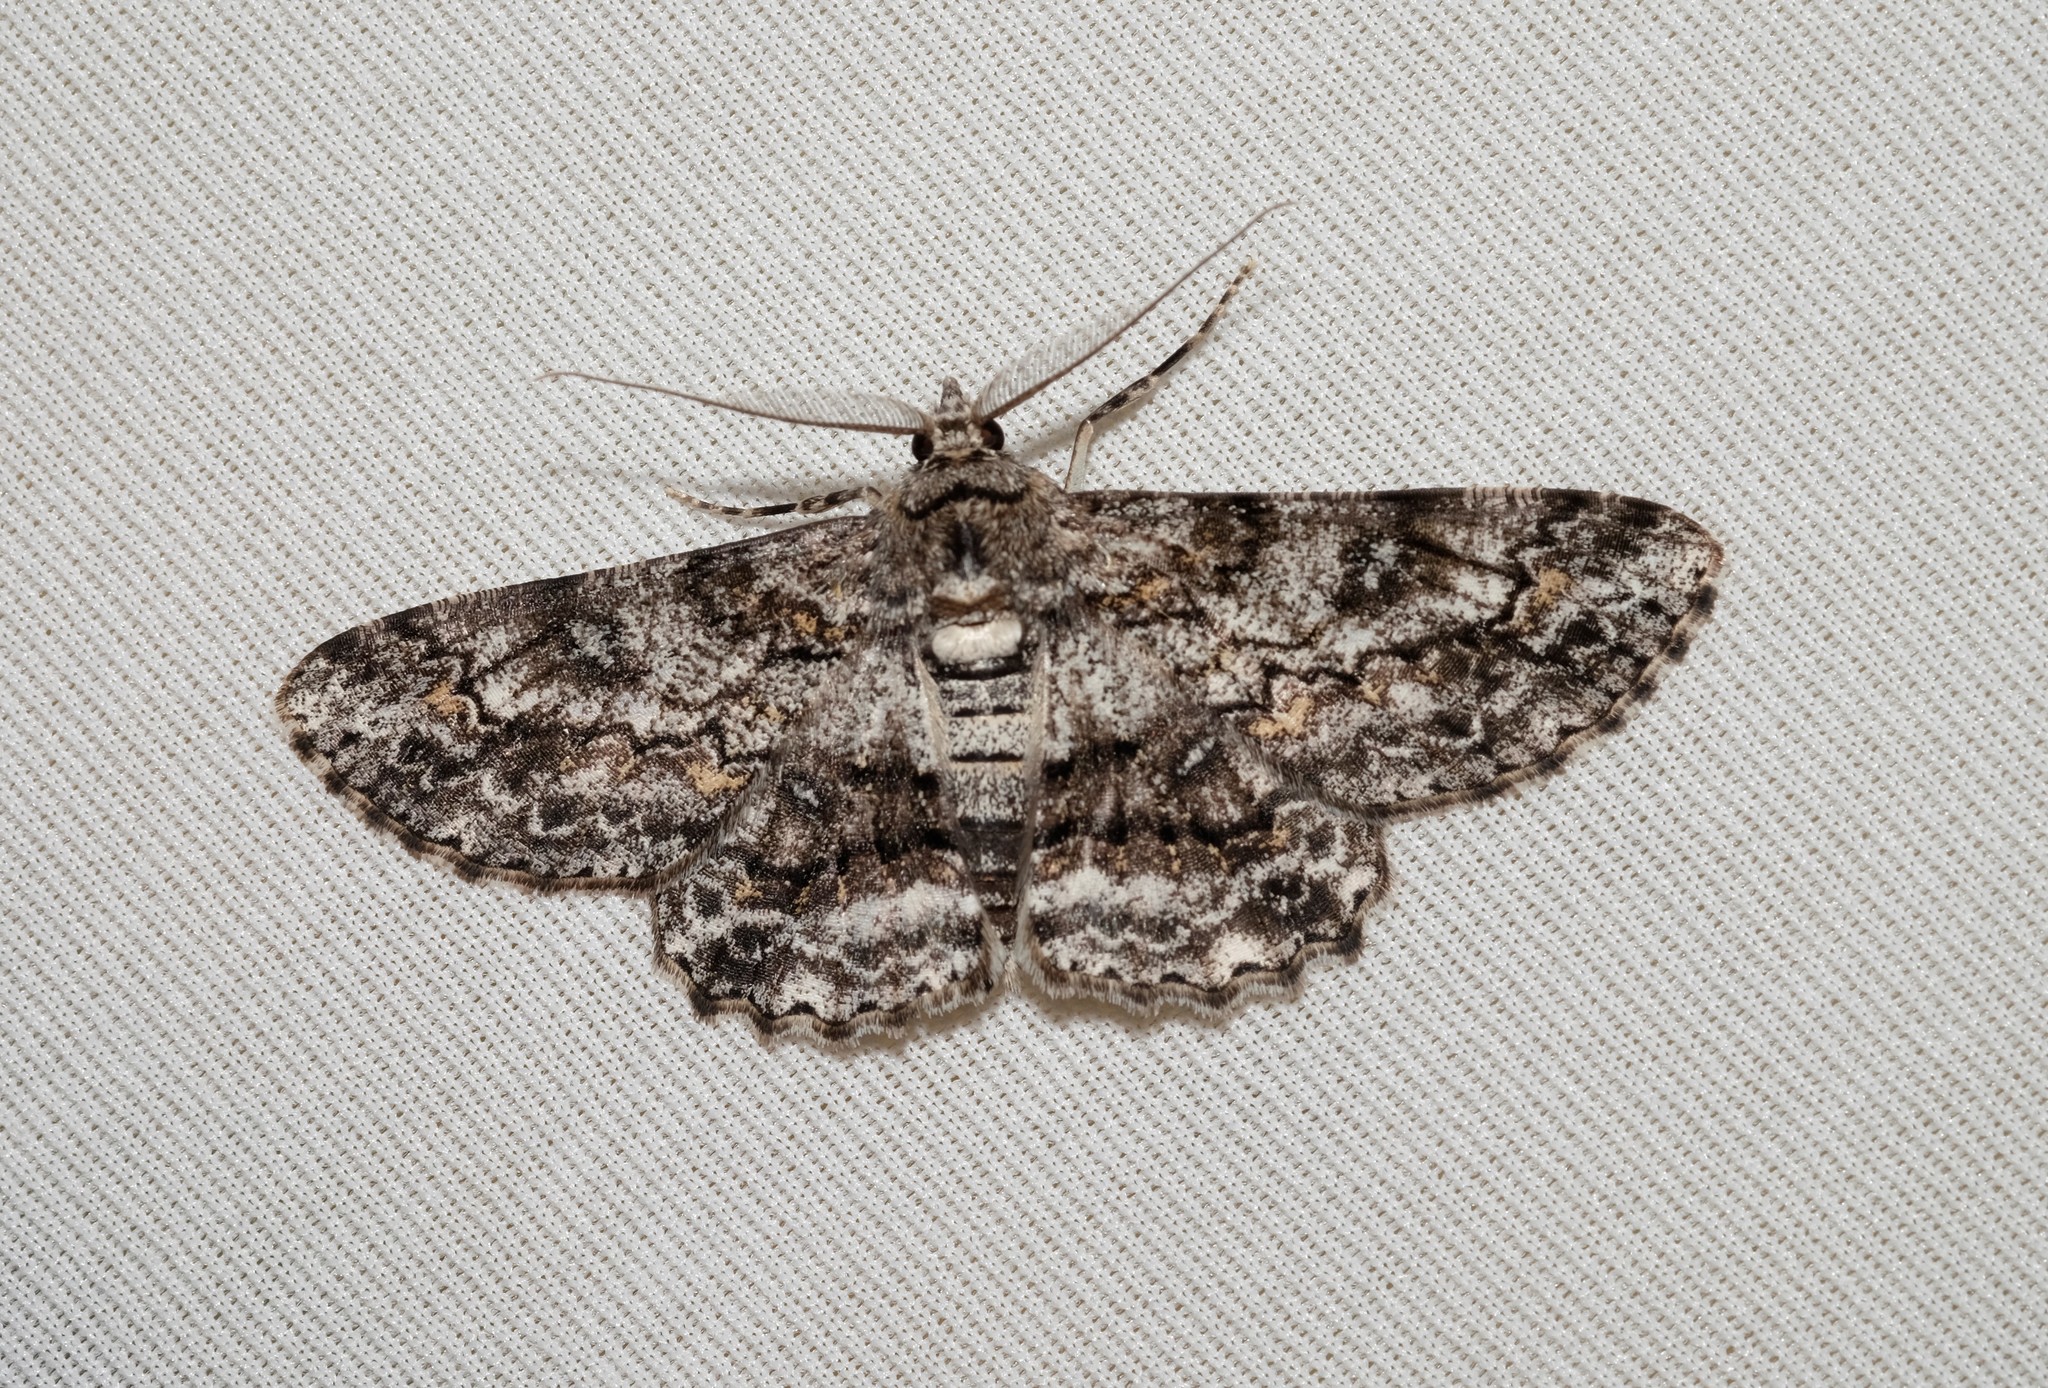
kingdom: Animalia
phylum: Arthropoda
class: Insecta
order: Lepidoptera
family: Geometridae
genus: Cleora
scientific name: Cleora
